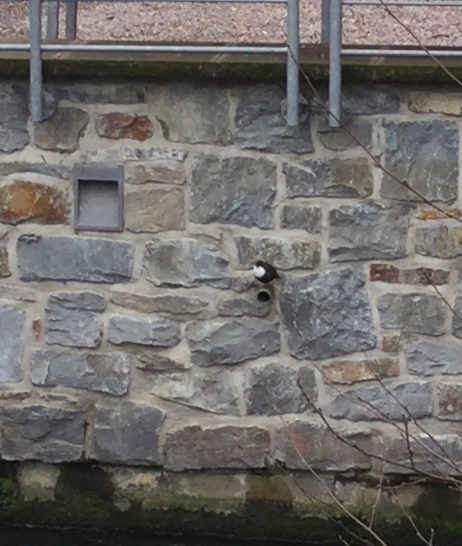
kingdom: Animalia
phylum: Chordata
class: Aves
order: Passeriformes
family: Cinclidae
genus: Cinclus
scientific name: Cinclus cinclus
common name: White-throated dipper
